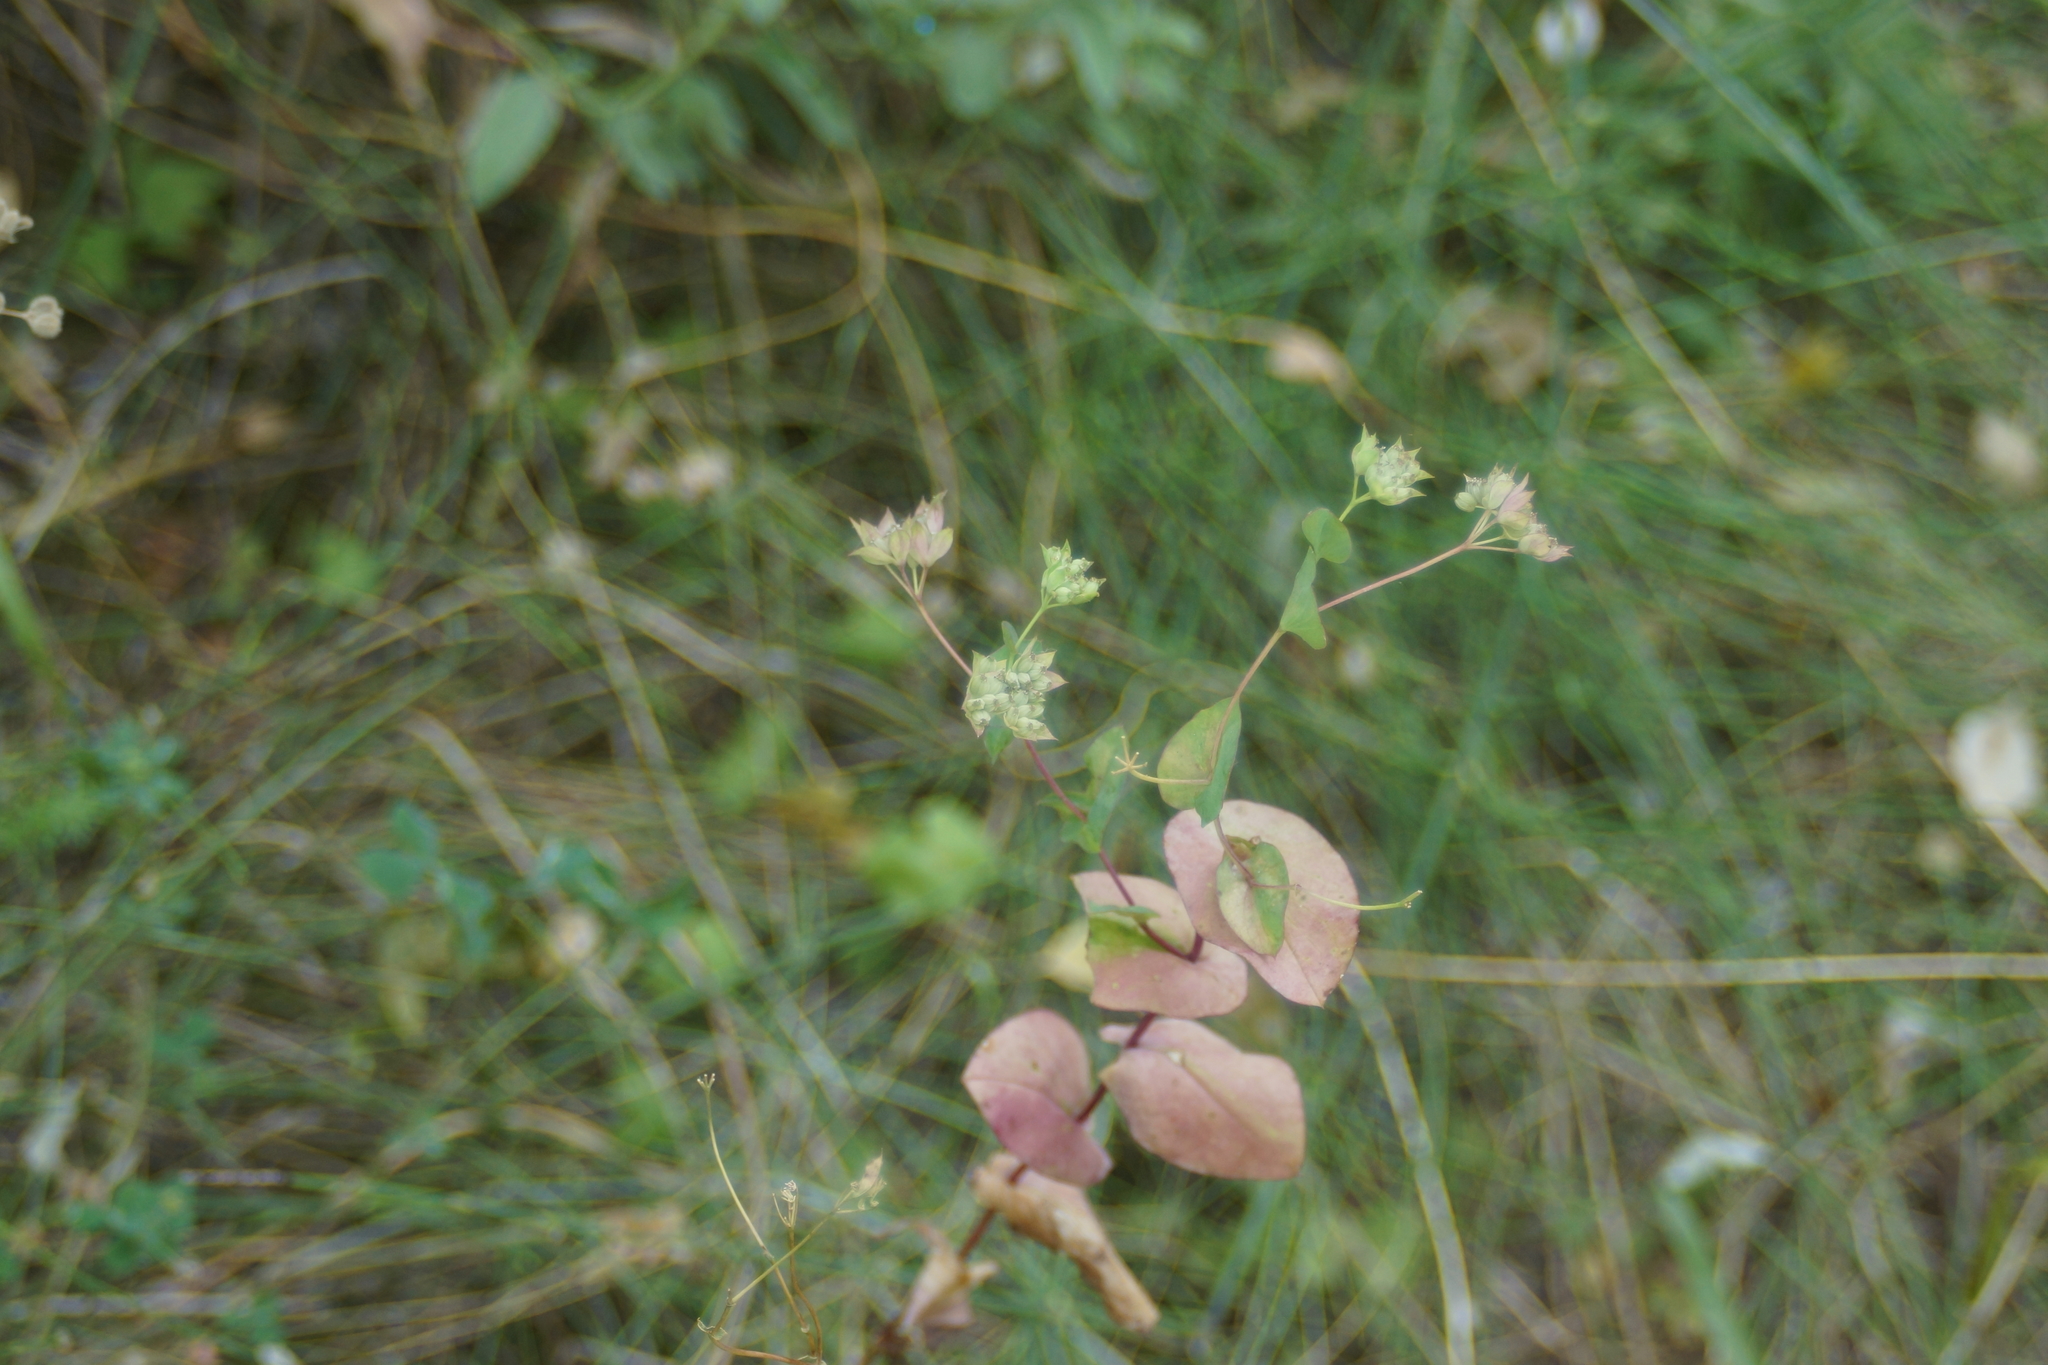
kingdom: Plantae
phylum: Tracheophyta
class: Magnoliopsida
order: Apiales
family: Apiaceae
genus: Bupleurum
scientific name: Bupleurum rotundifolium
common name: Thorow-wax
